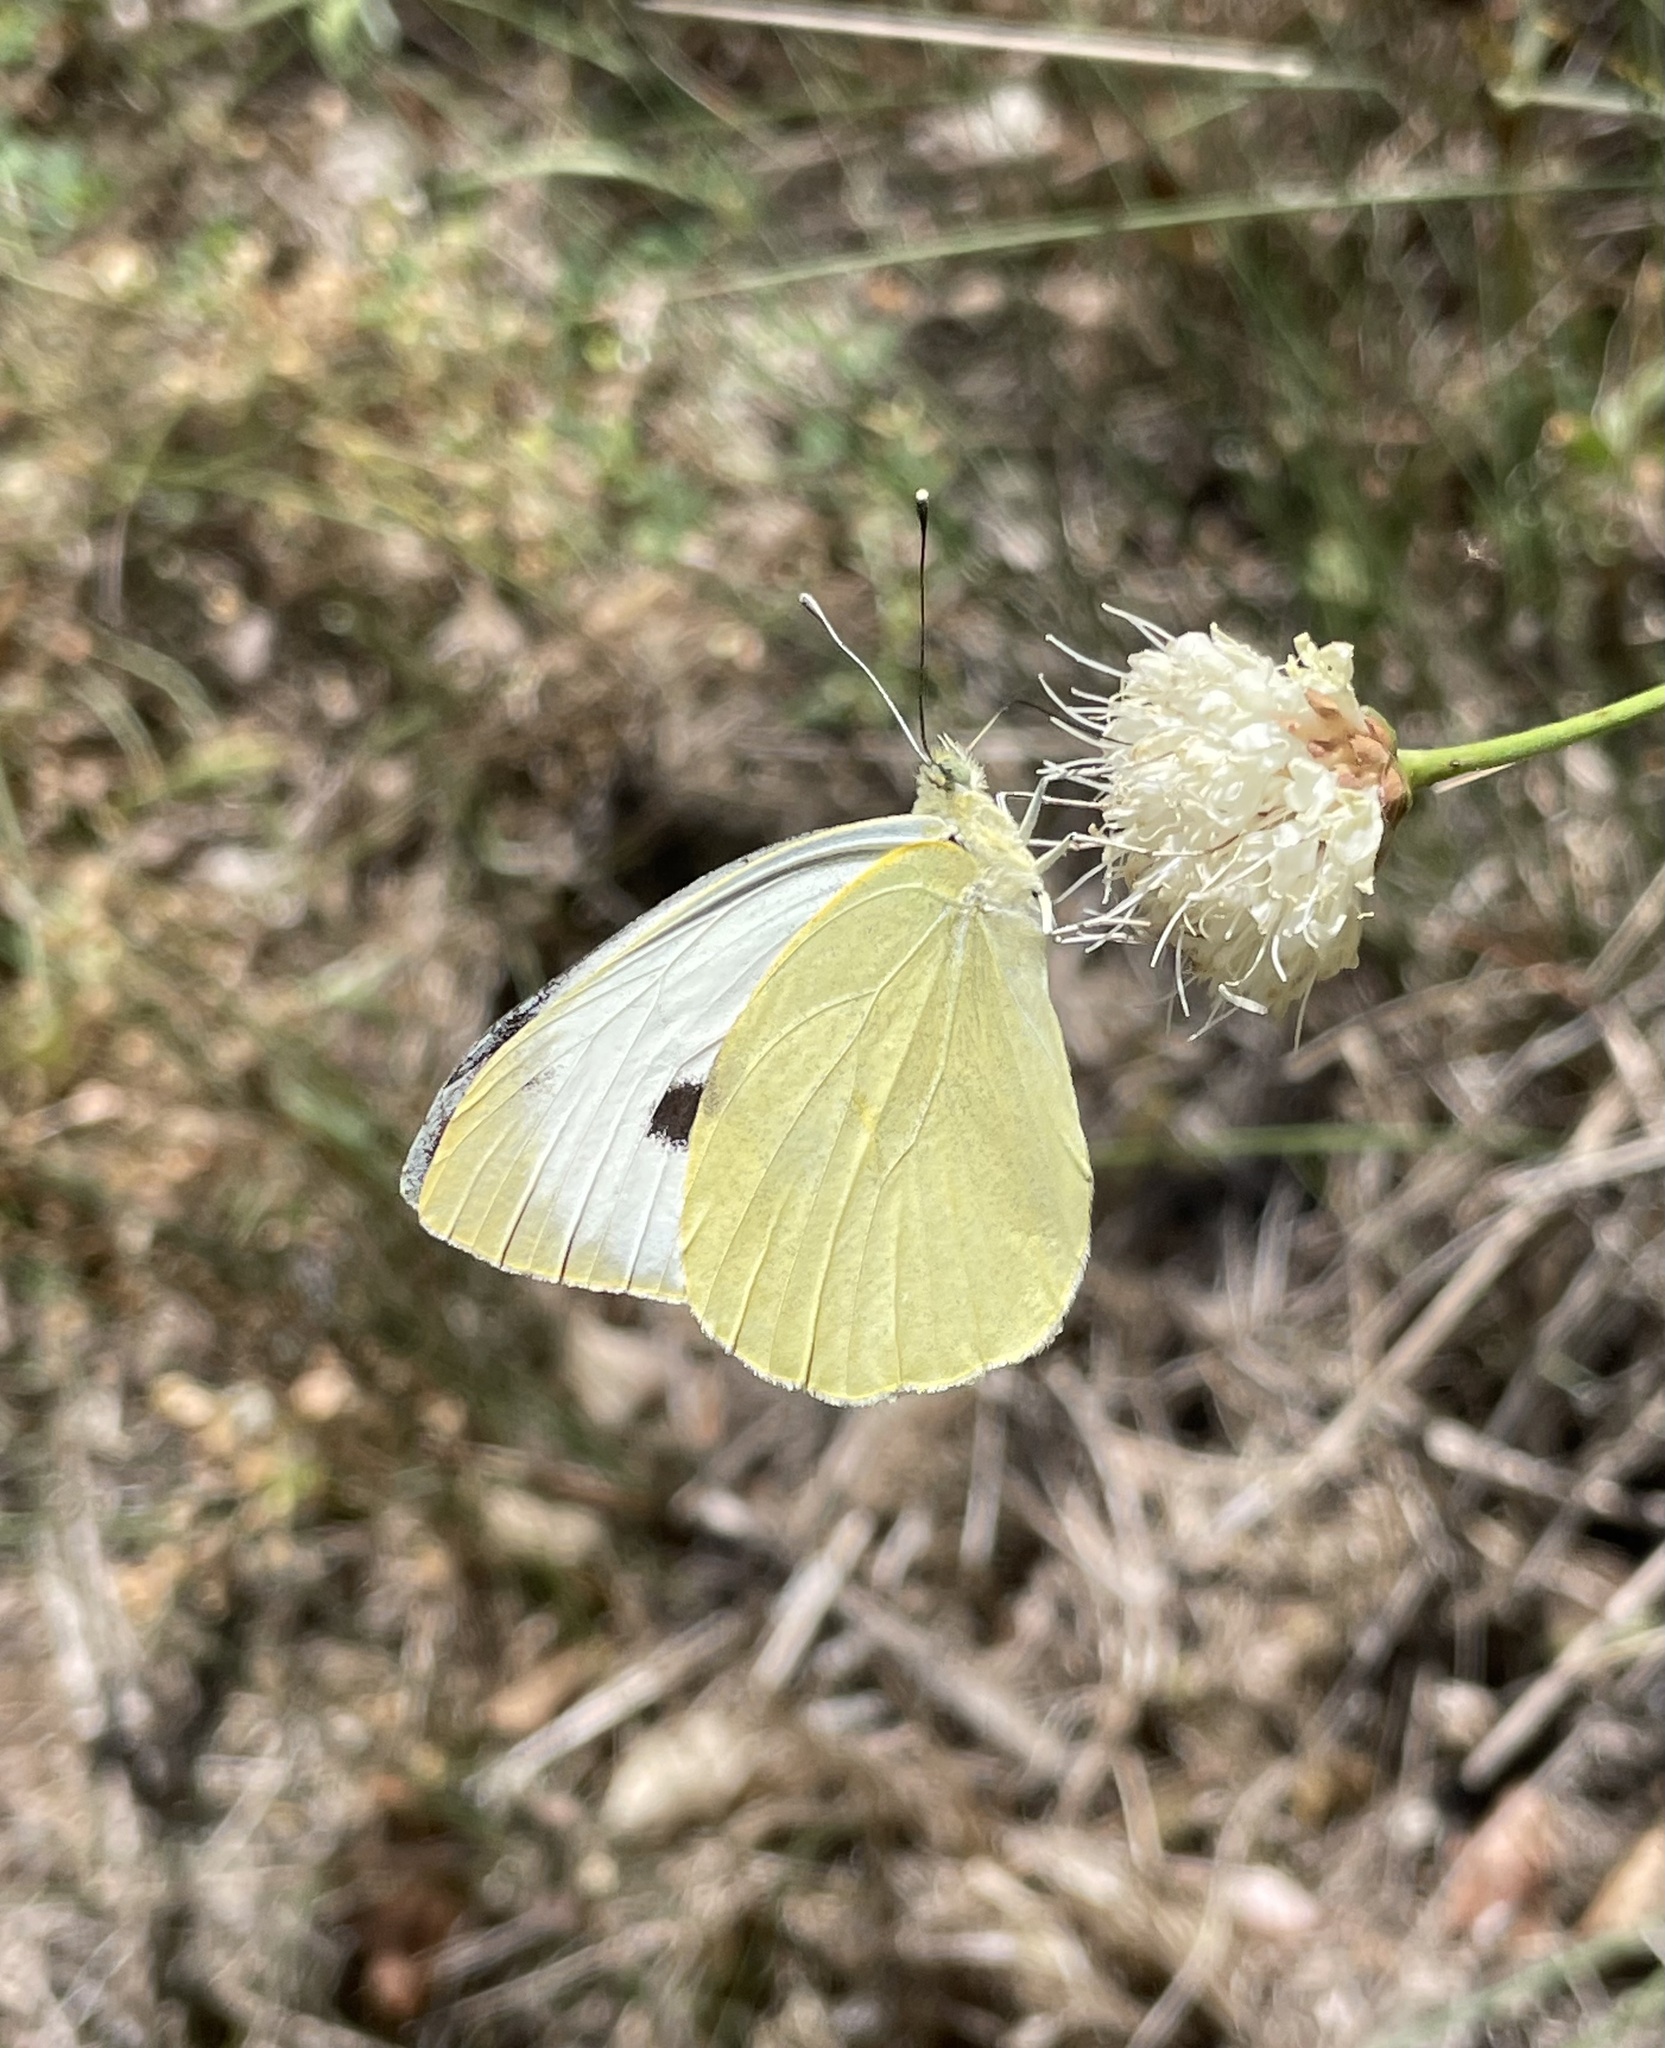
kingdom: Animalia
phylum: Arthropoda
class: Insecta
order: Lepidoptera
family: Pieridae
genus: Pieris
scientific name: Pieris brassicae
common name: Large white
